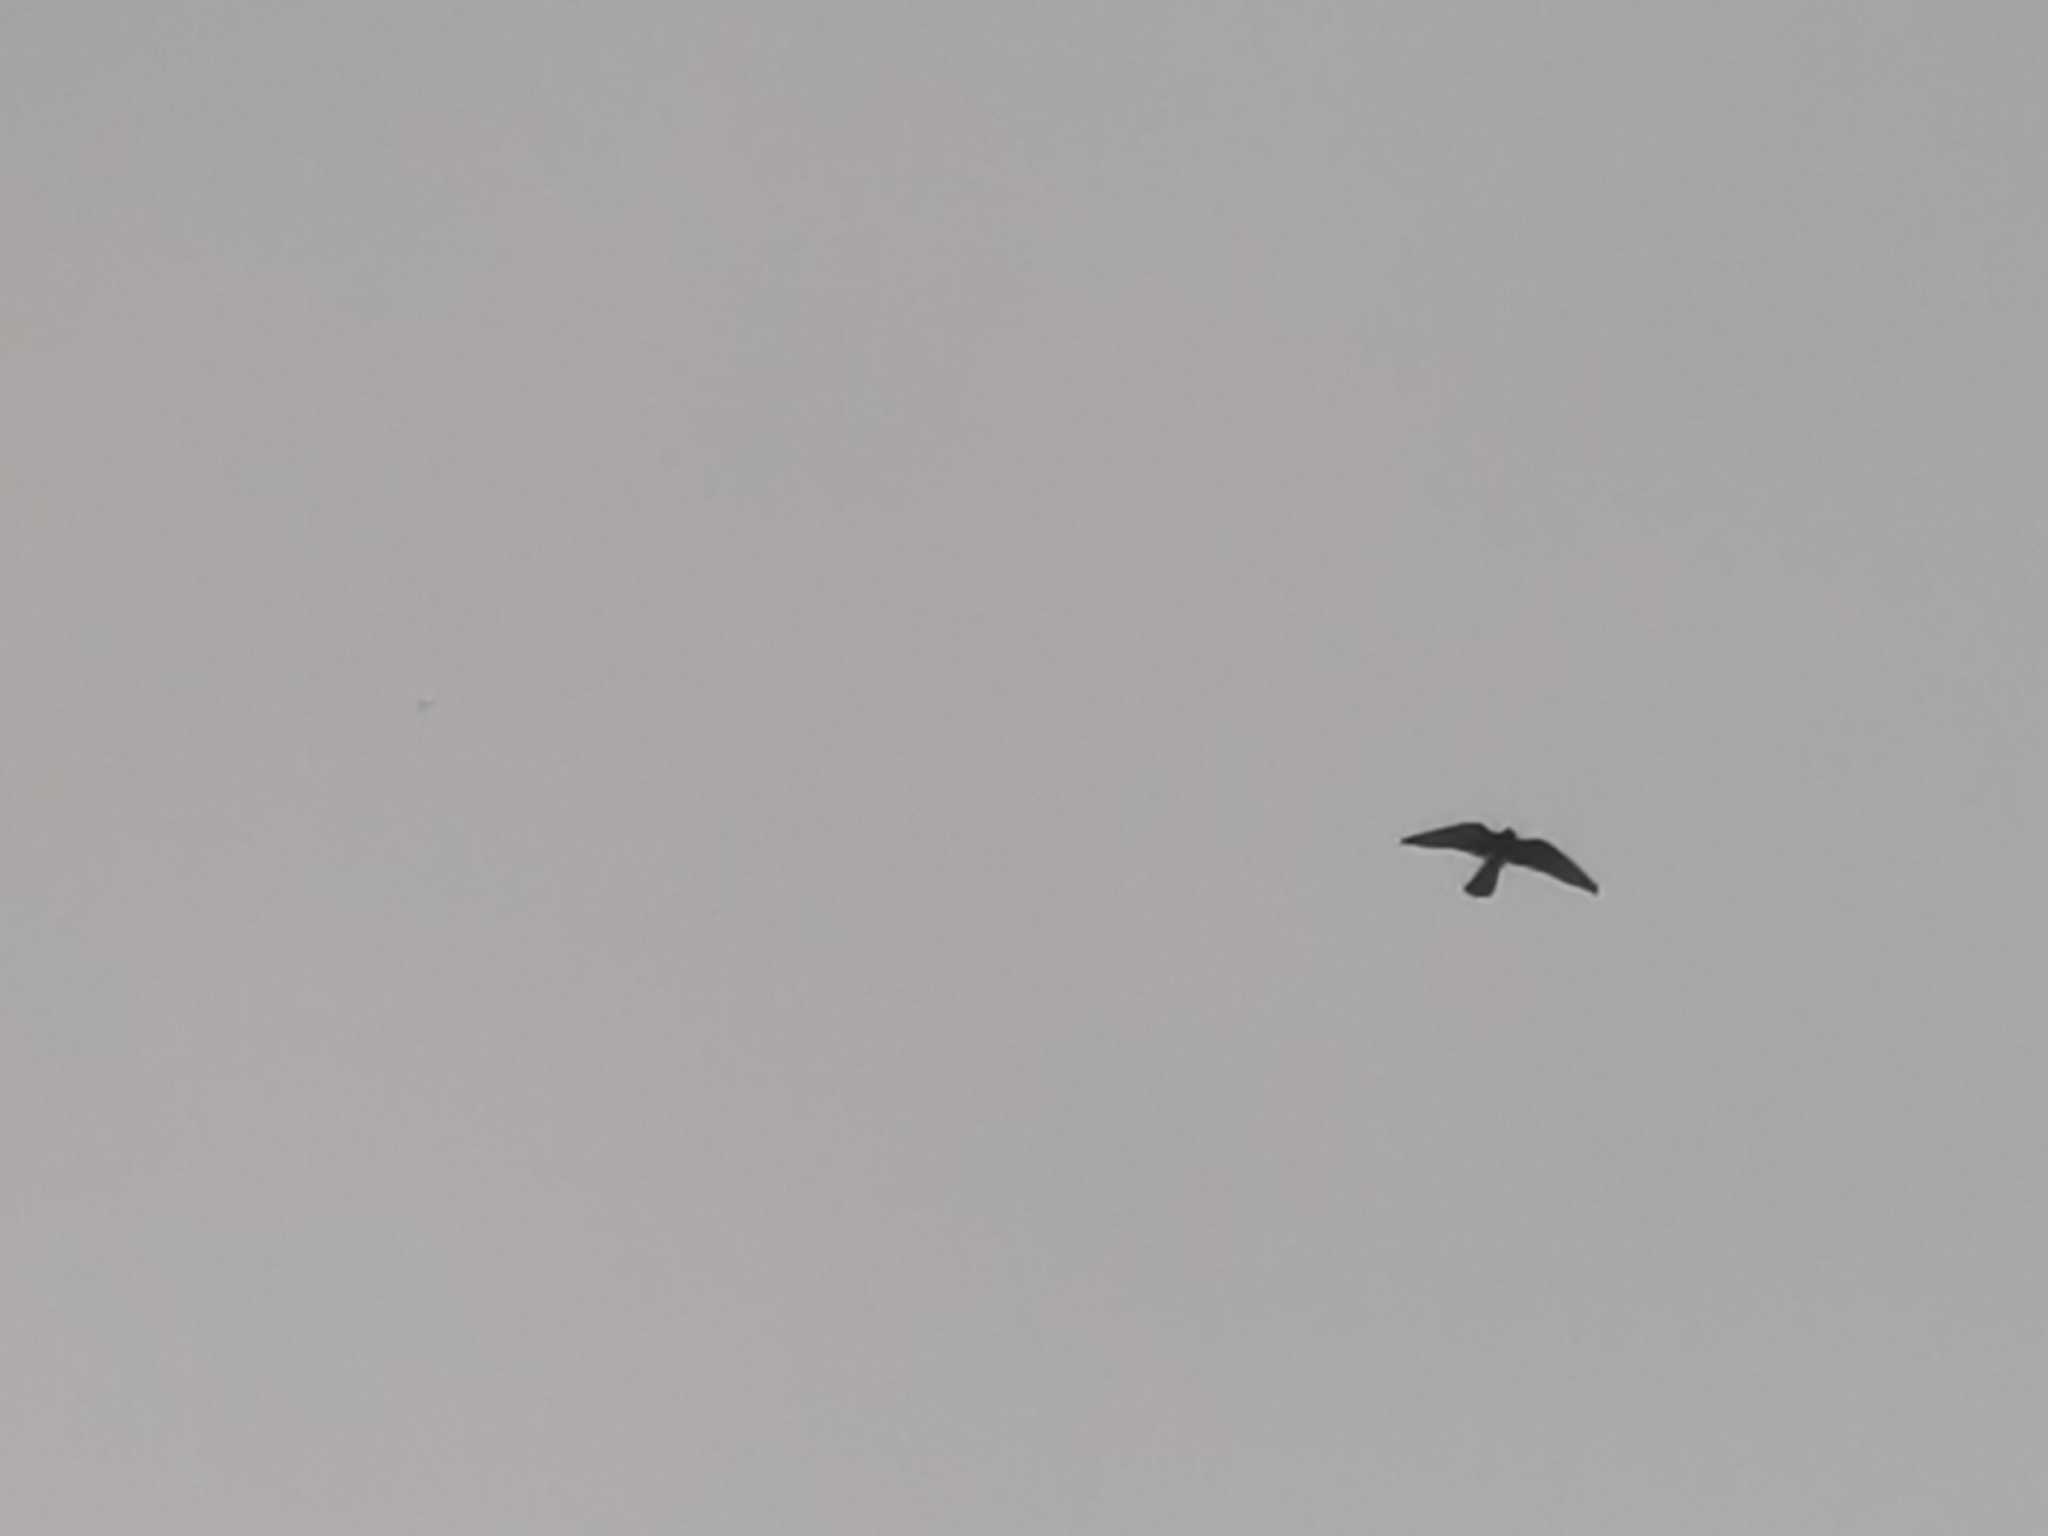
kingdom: Animalia
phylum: Chordata
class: Aves
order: Falconiformes
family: Falconidae
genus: Falco
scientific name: Falco tinnunculus
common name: Common kestrel
